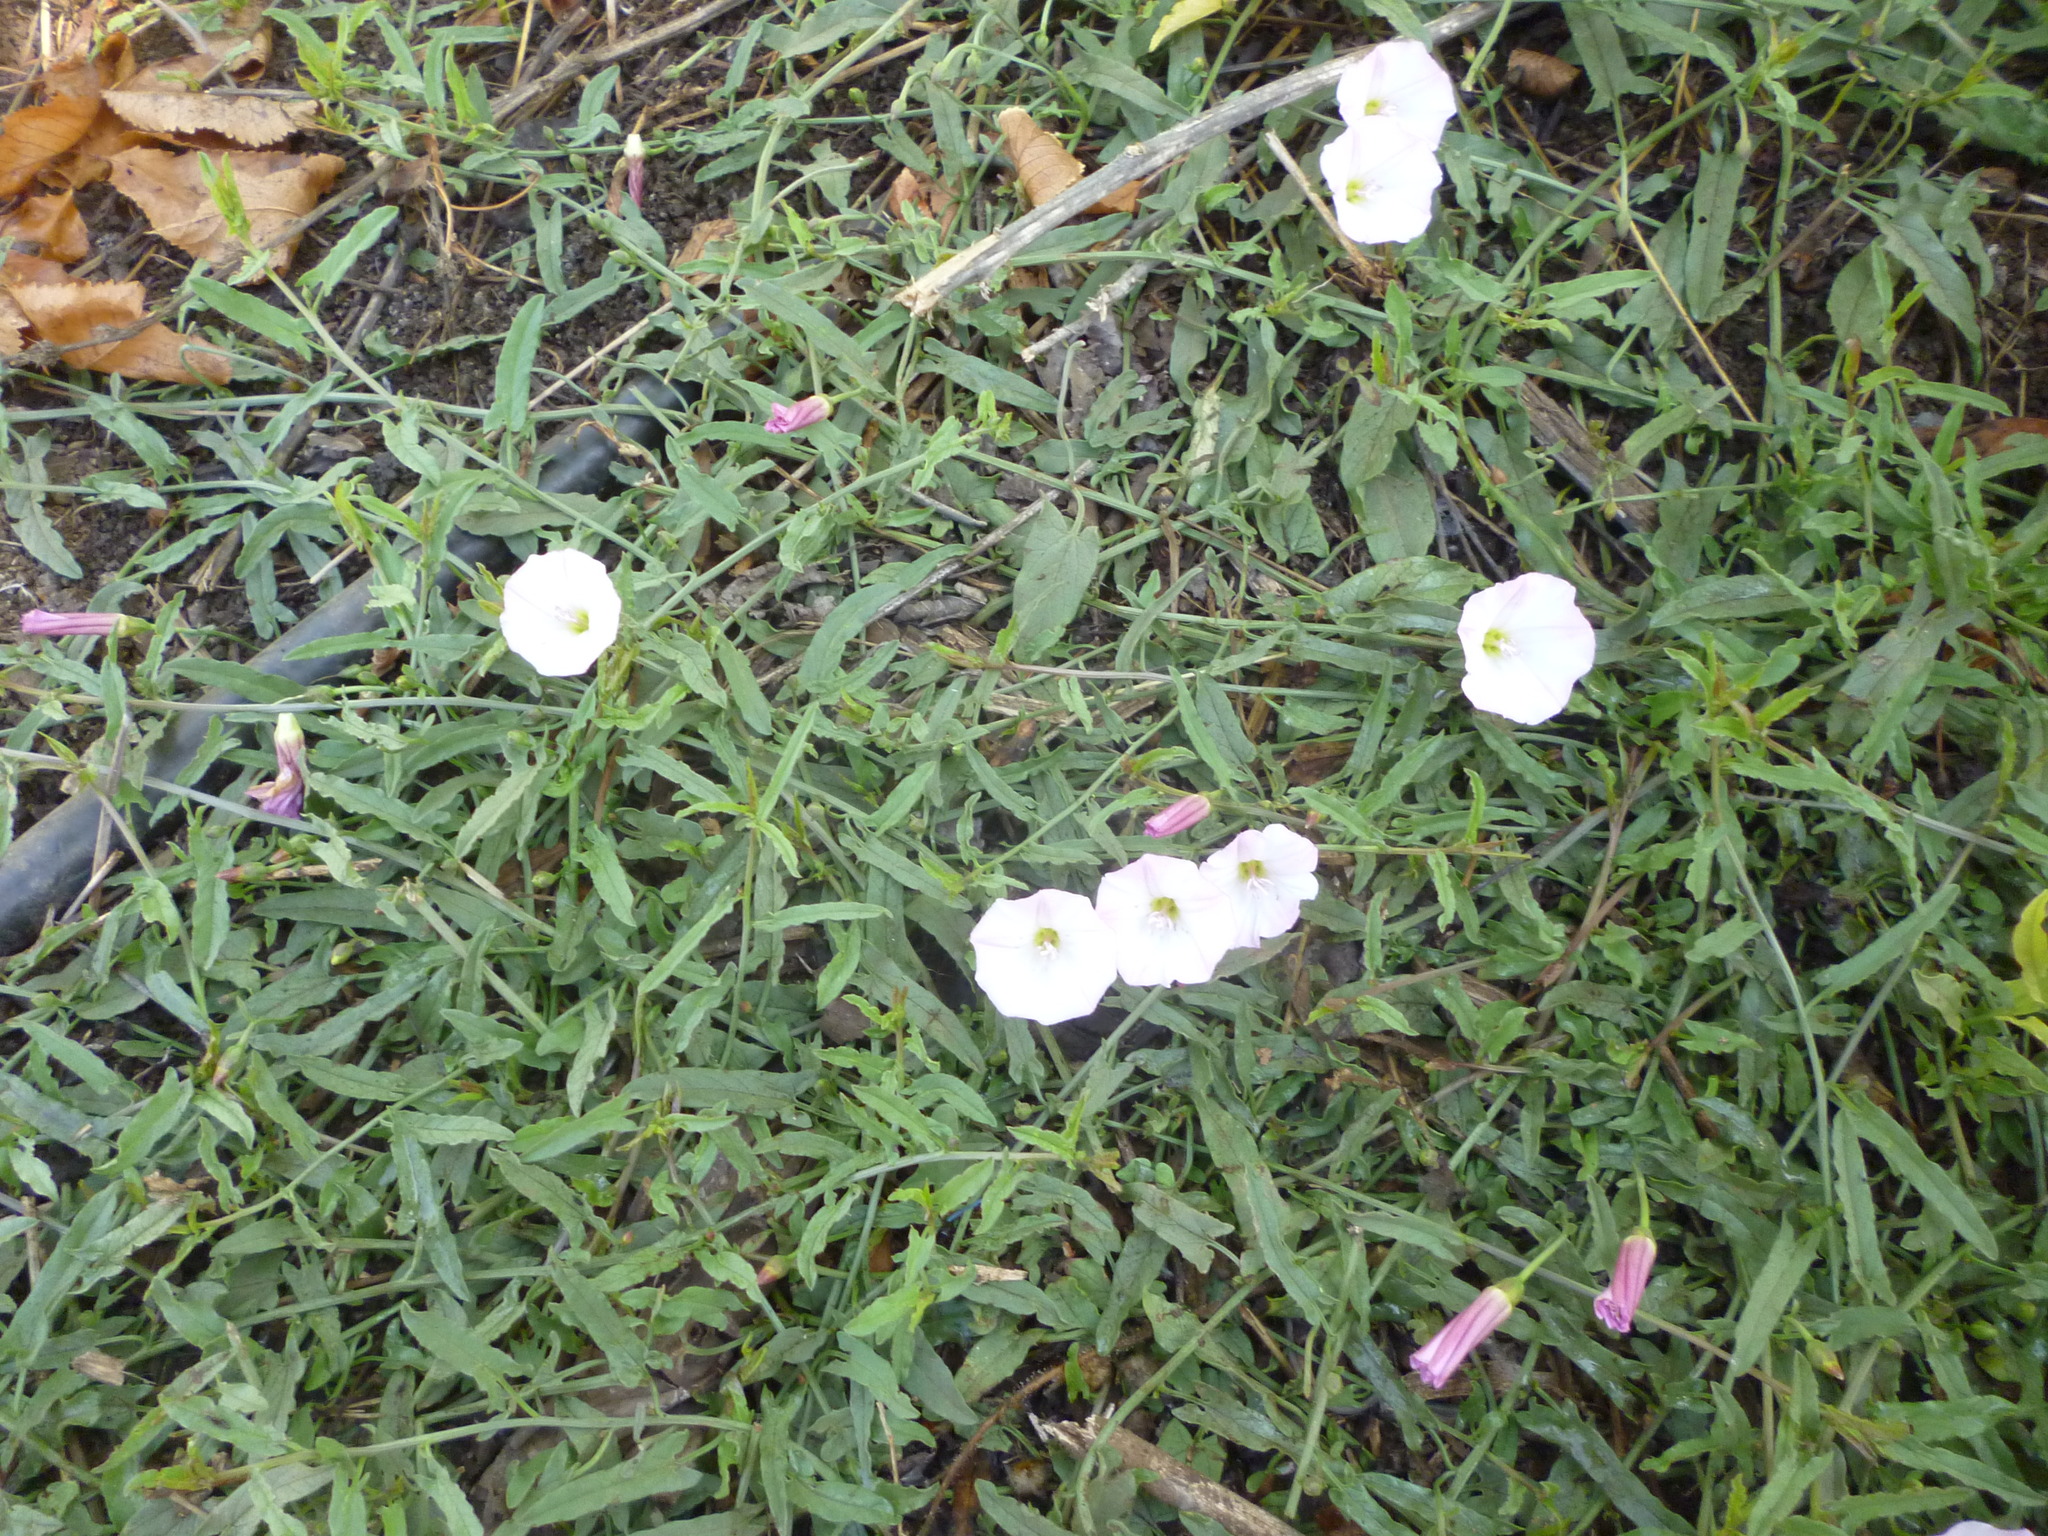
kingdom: Plantae
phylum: Tracheophyta
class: Magnoliopsida
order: Solanales
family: Convolvulaceae
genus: Convolvulus
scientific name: Convolvulus arvensis
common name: Field bindweed
